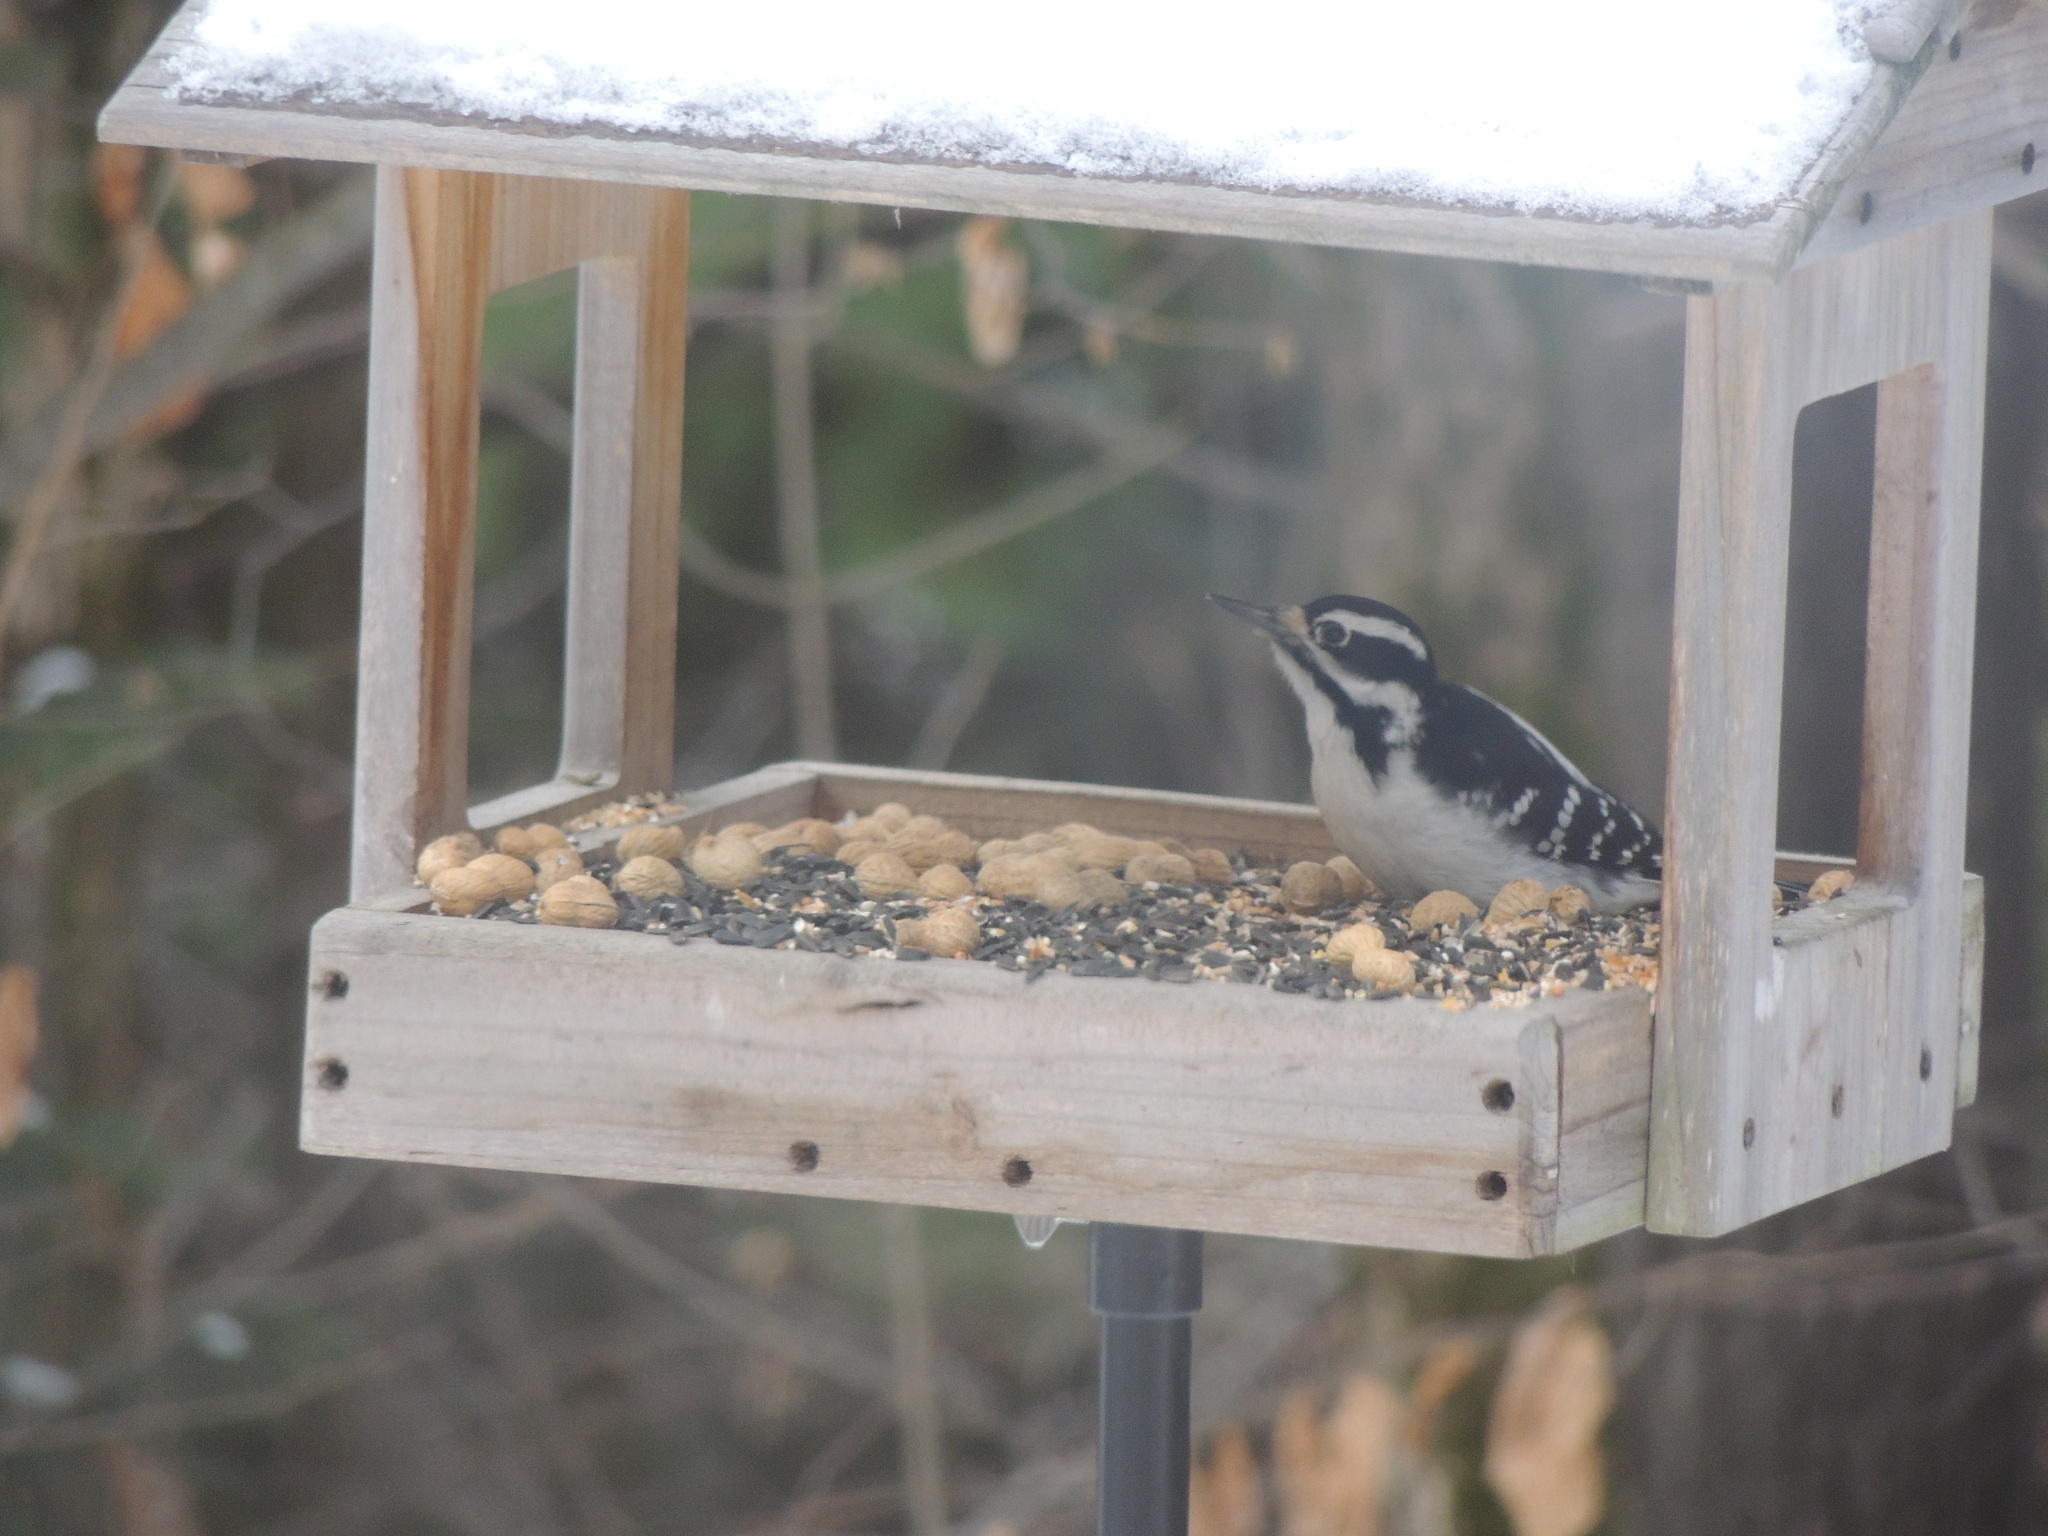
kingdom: Animalia
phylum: Chordata
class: Aves
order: Piciformes
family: Picidae
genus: Leuconotopicus
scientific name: Leuconotopicus villosus
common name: Hairy woodpecker
